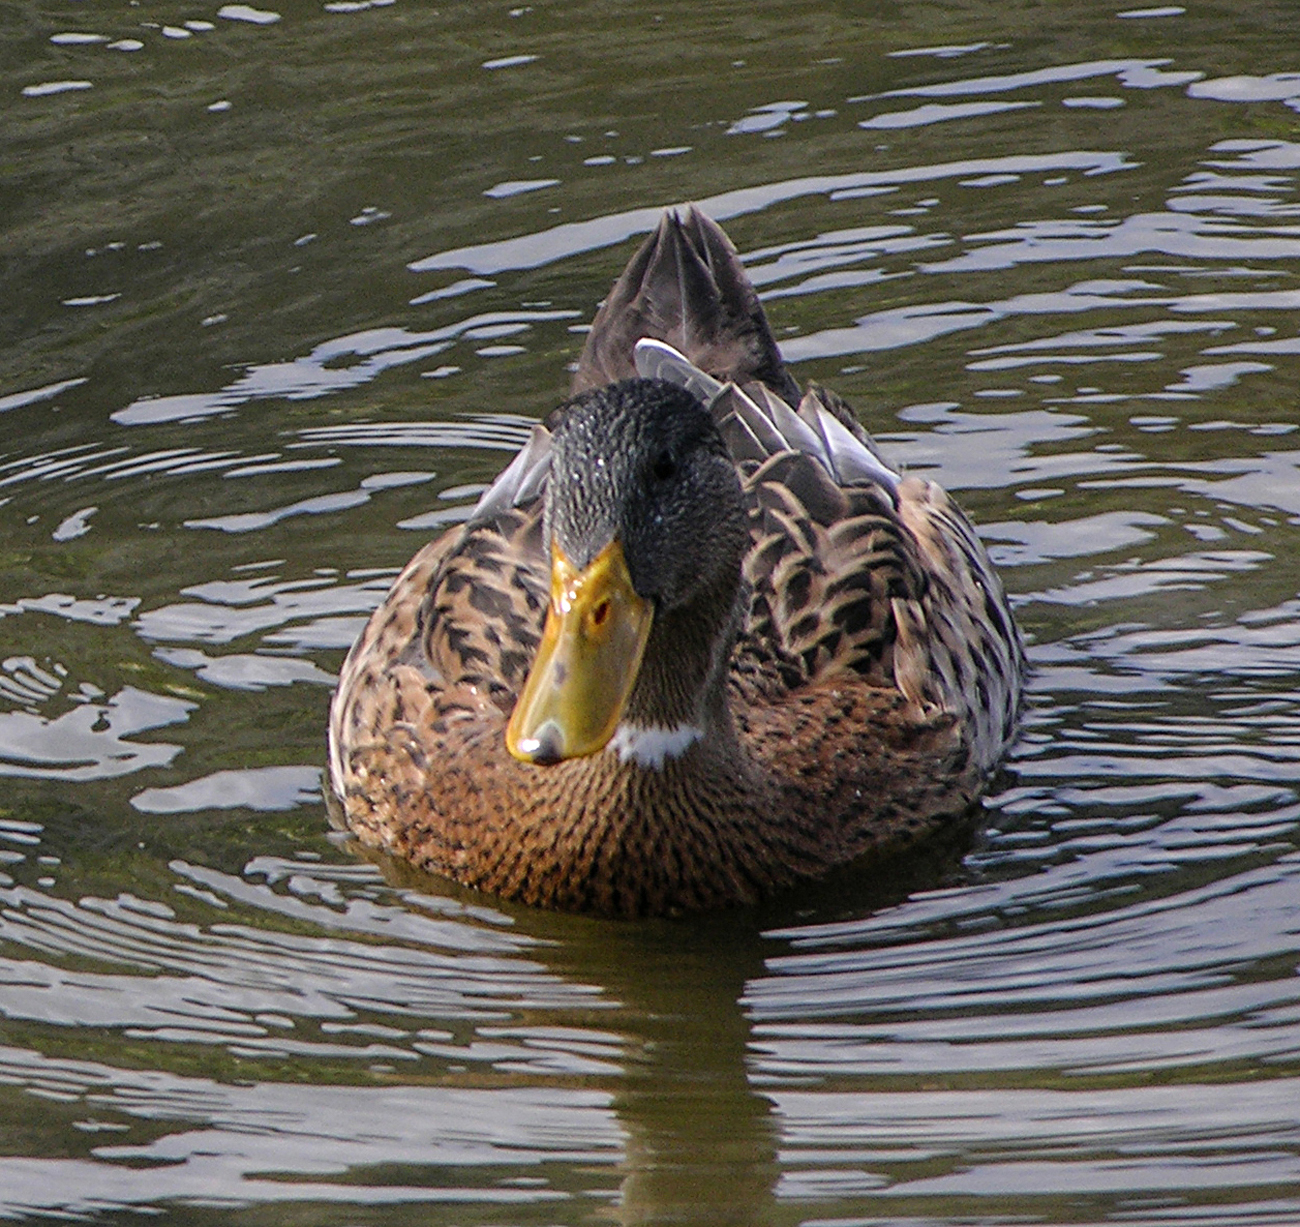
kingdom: Animalia
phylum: Chordata
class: Aves
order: Anseriformes
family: Anatidae
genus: Anas
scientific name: Anas platyrhynchos
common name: Mallard
